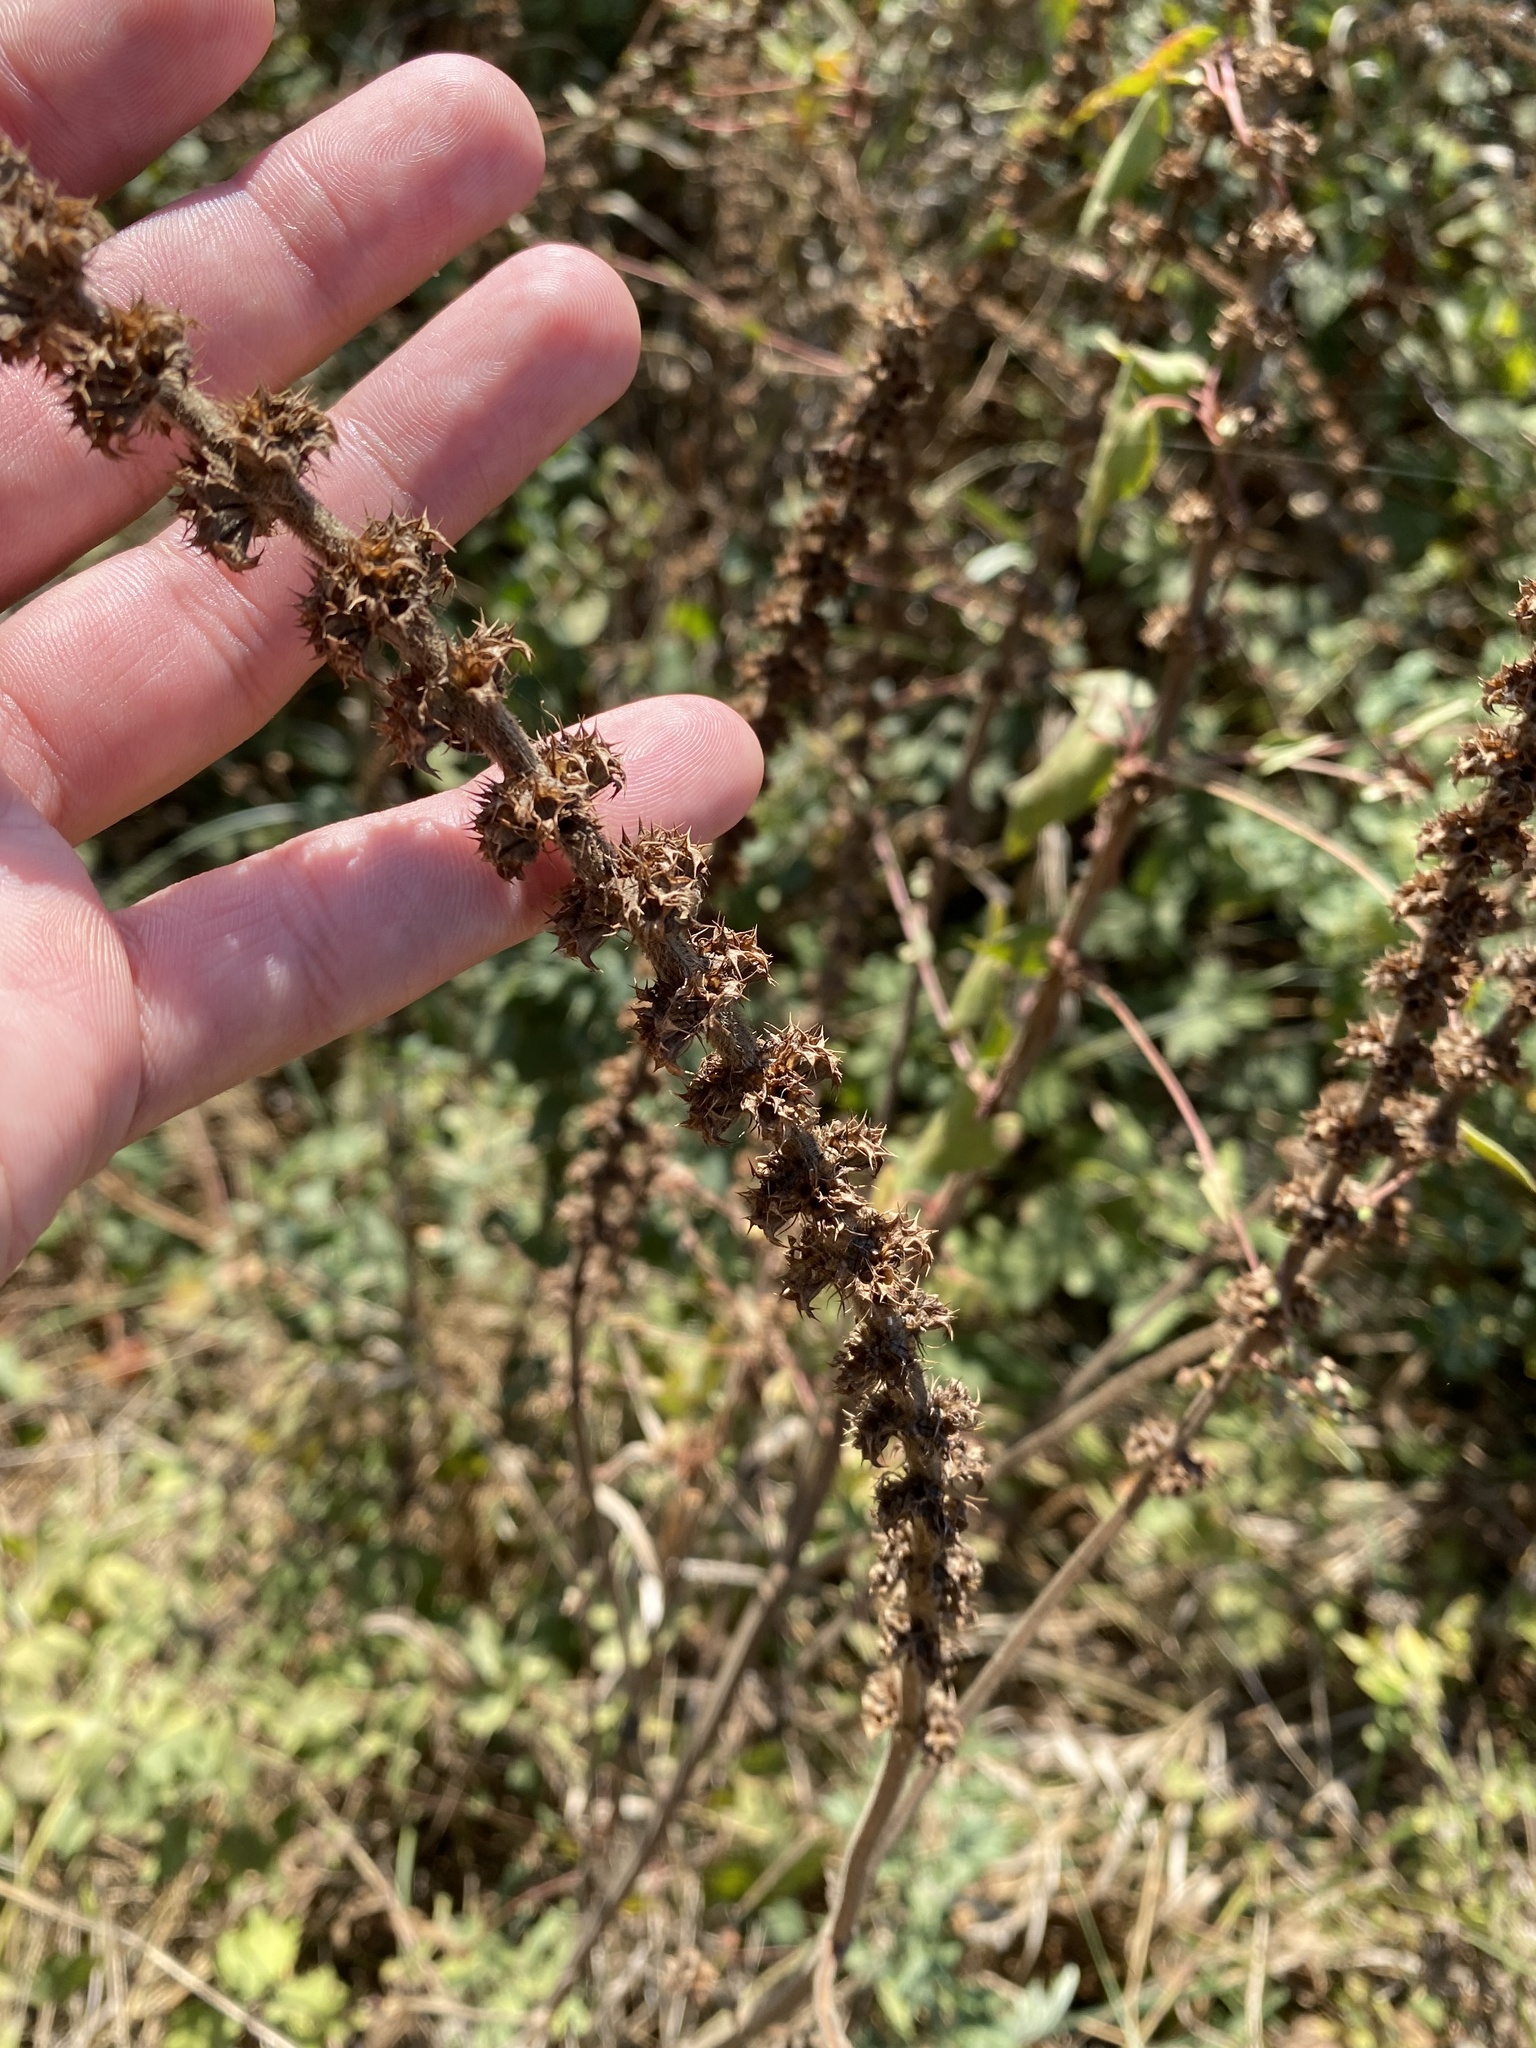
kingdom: Plantae
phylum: Tracheophyta
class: Magnoliopsida
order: Lamiales
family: Lamiaceae
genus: Leonurus
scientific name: Leonurus quinquelobatus
